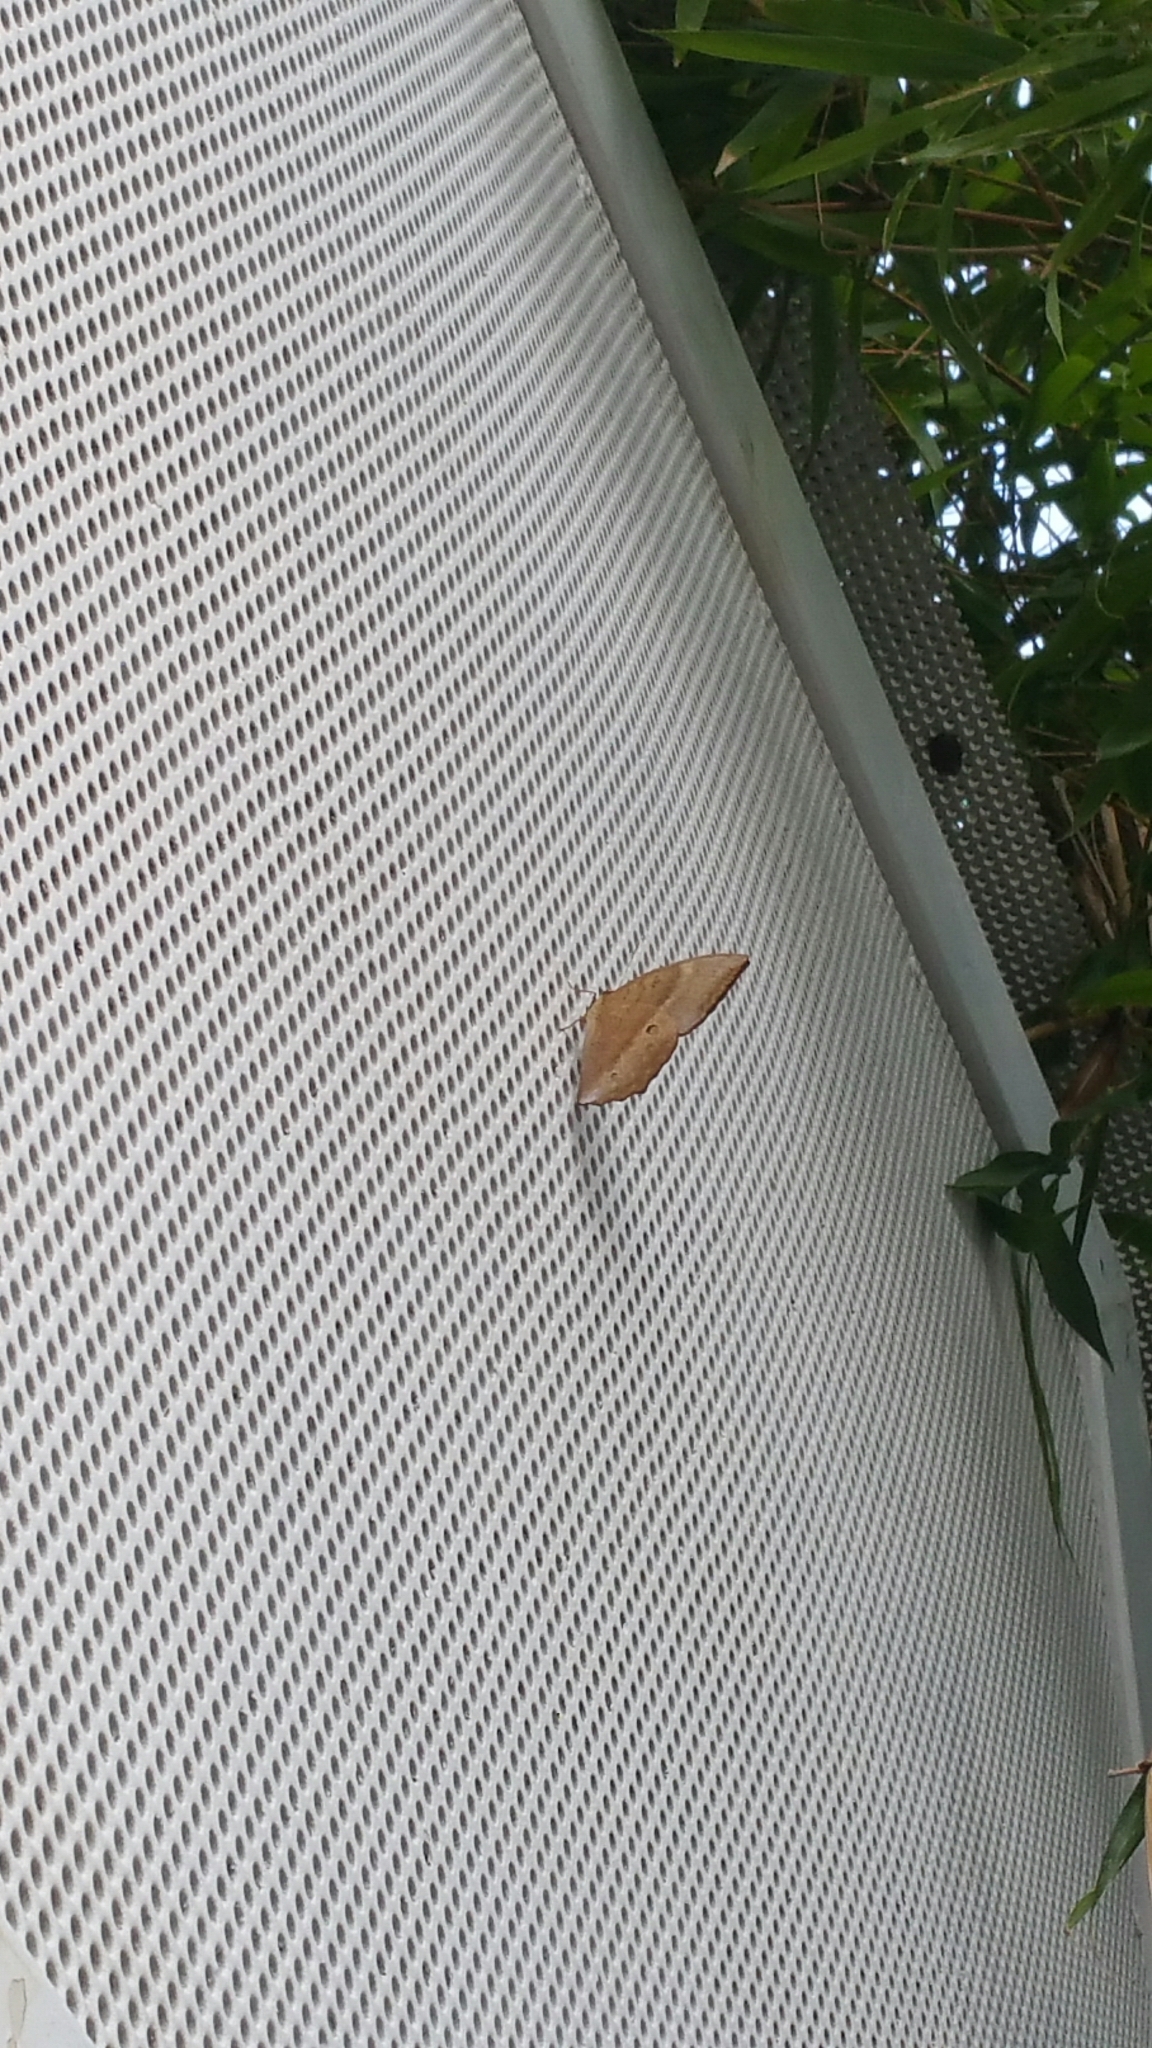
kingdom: Animalia
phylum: Arthropoda
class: Insecta
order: Lepidoptera
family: Nymphalidae
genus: Discophora
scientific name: Discophora sondaica
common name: Common duffer
